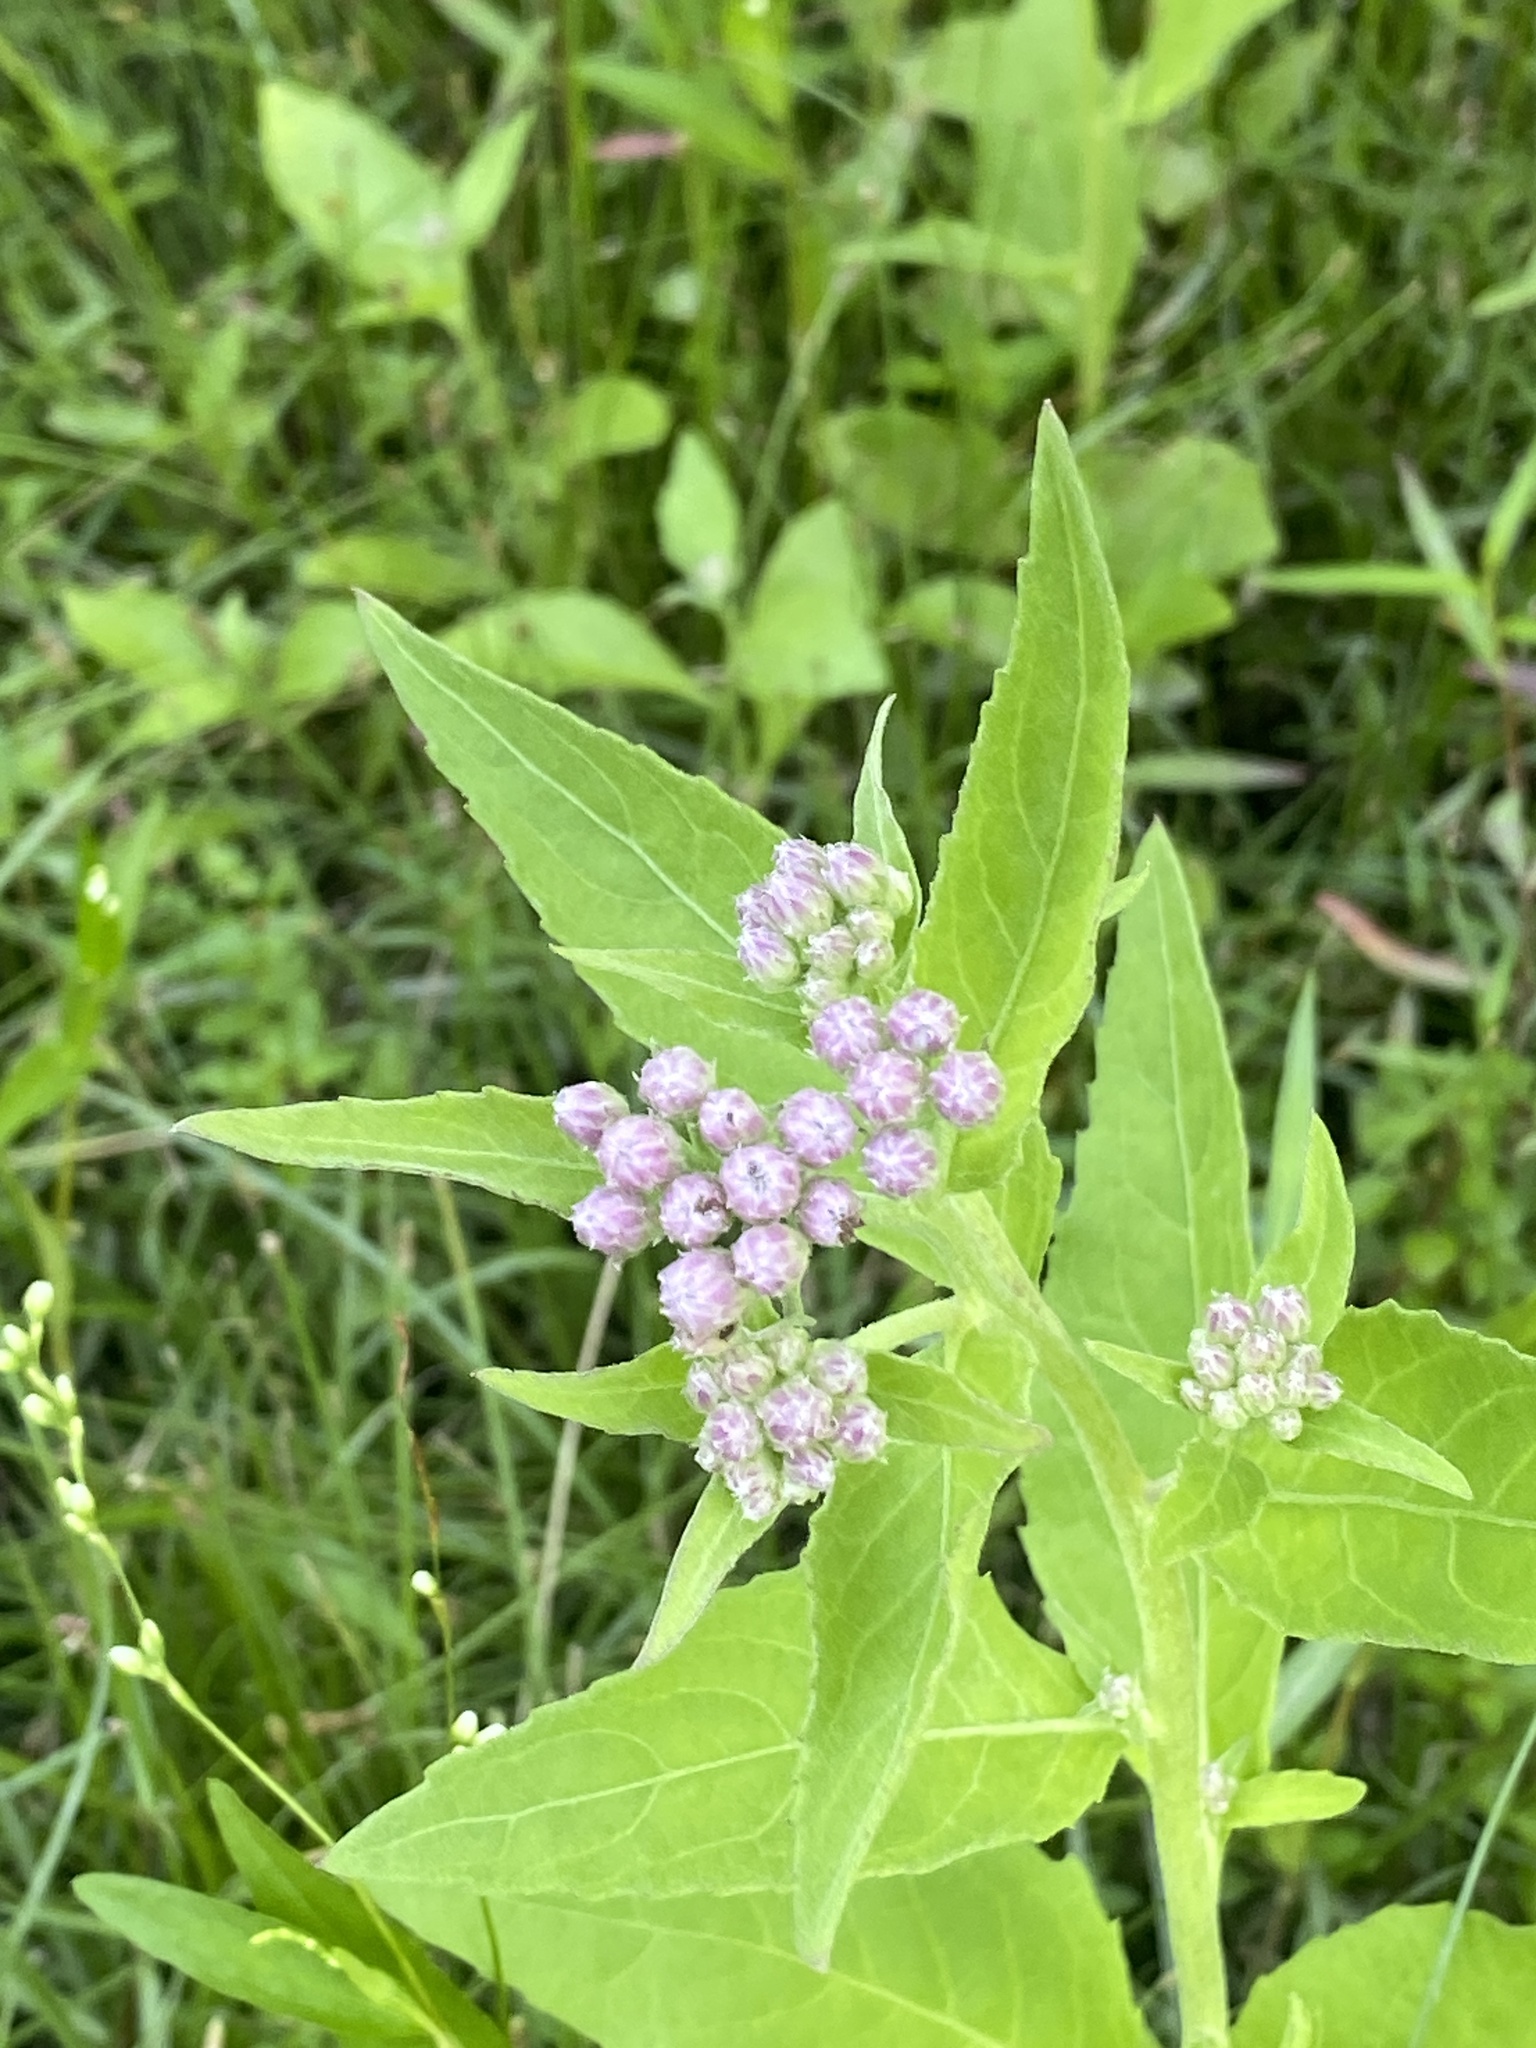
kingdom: Plantae
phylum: Tracheophyta
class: Magnoliopsida
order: Asterales
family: Asteraceae
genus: Pluchea
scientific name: Pluchea odorata
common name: Saltmarsh fleabane
